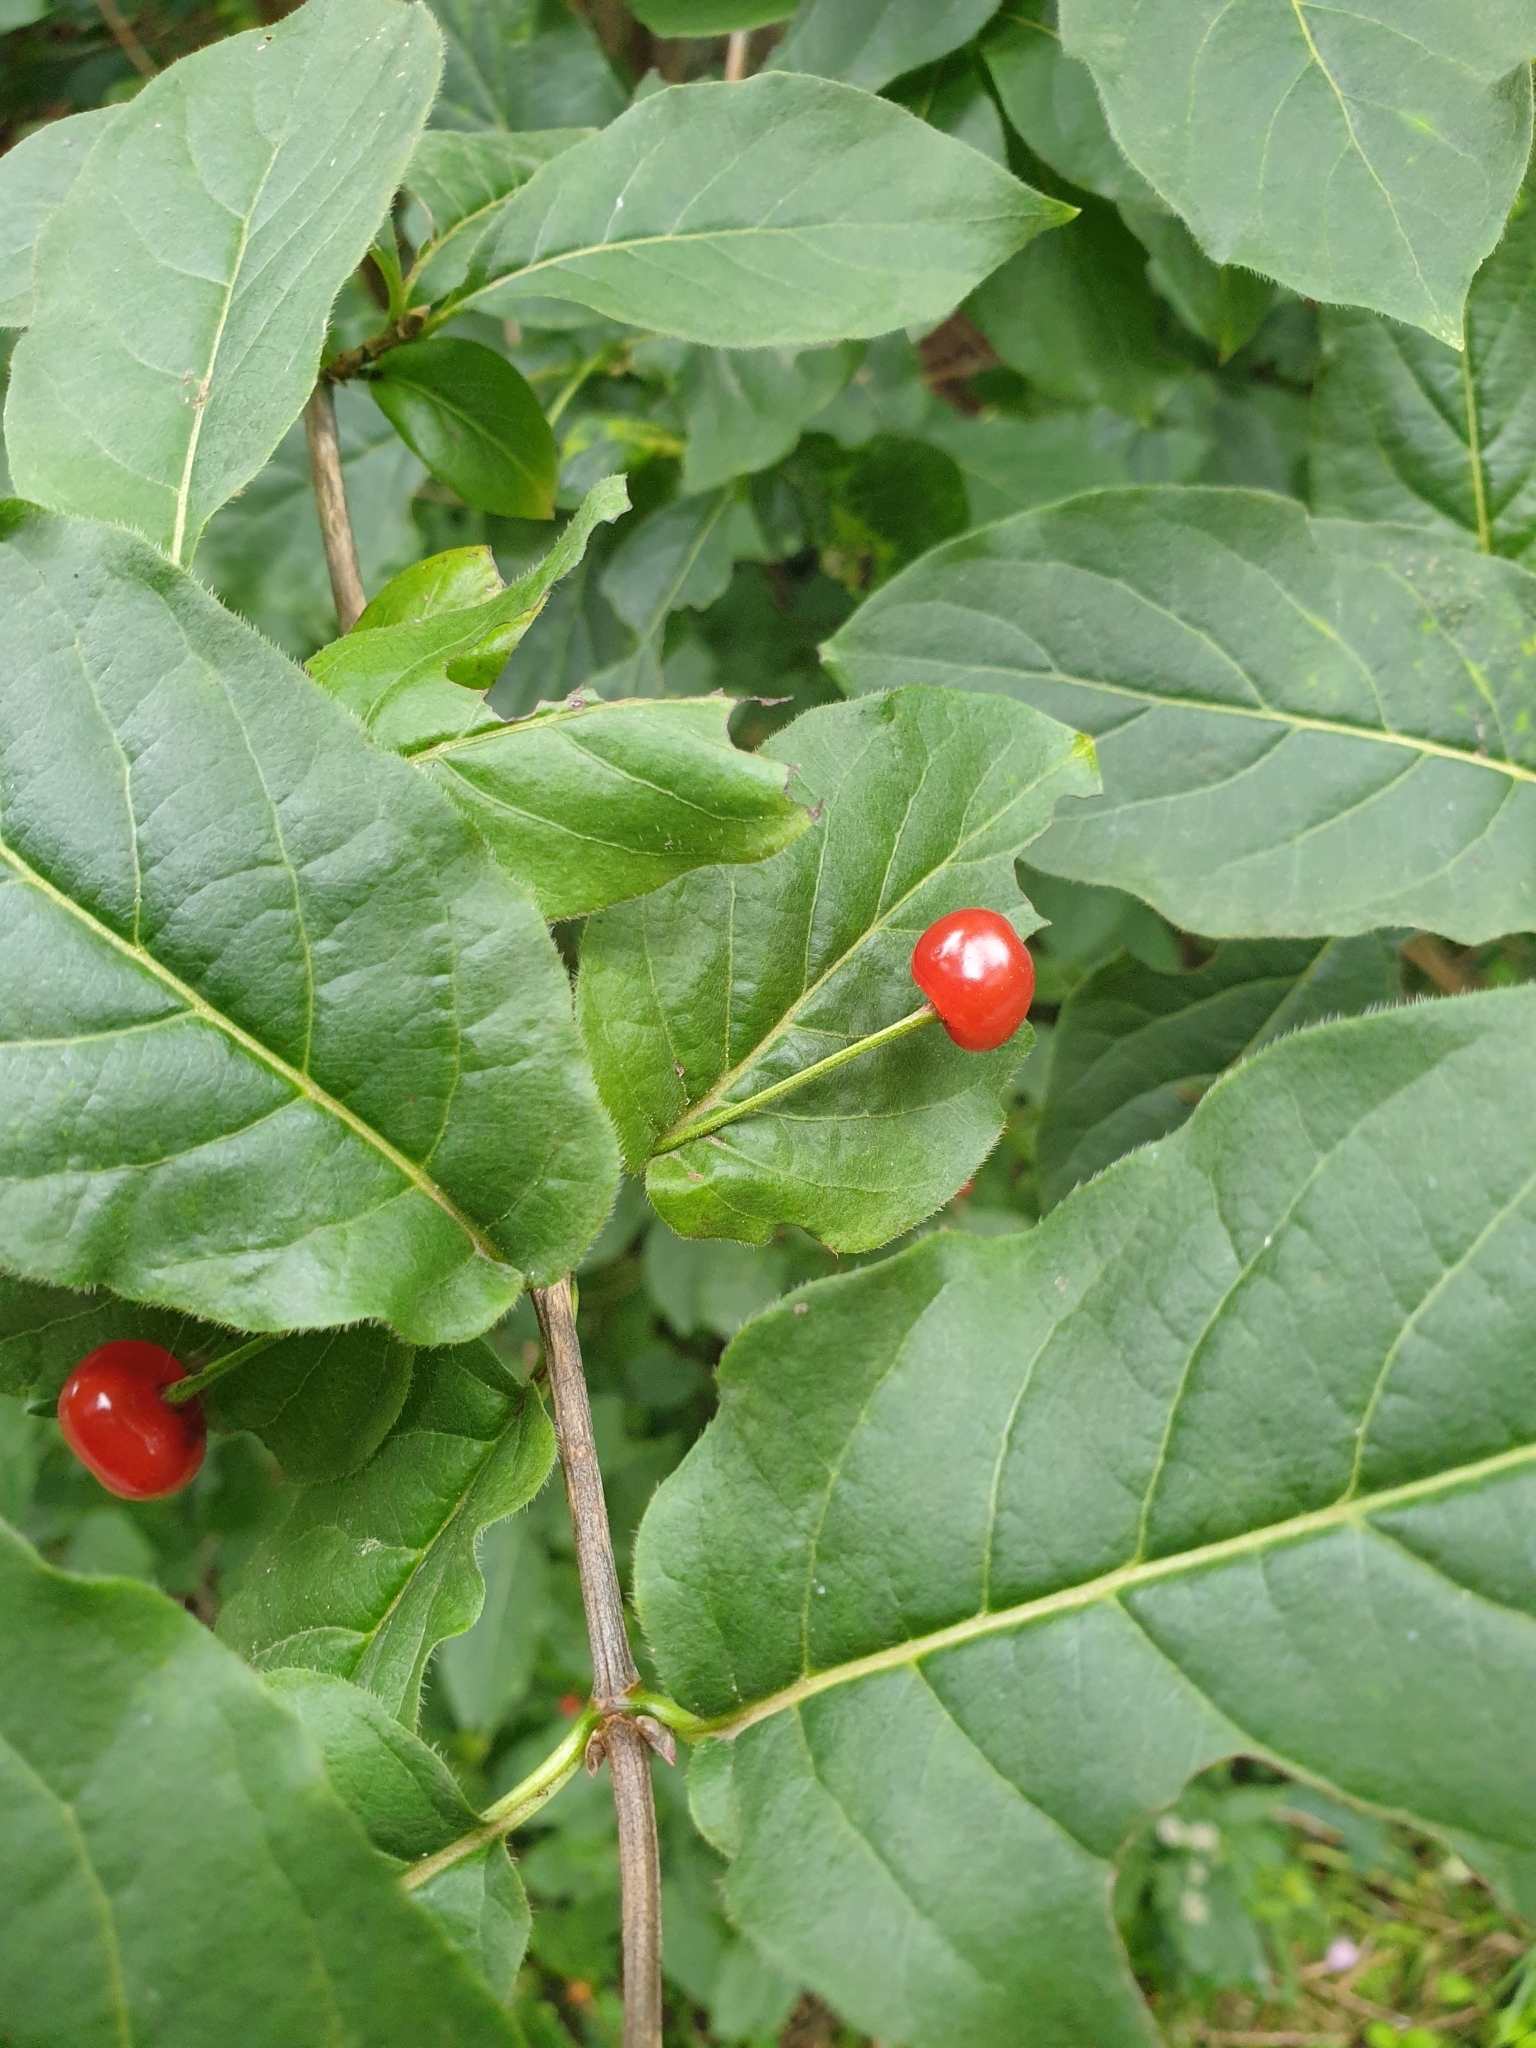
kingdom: Plantae
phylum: Tracheophyta
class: Magnoliopsida
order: Dipsacales
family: Caprifoliaceae
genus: Lonicera
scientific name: Lonicera alpigena
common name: Alpine honeysuckle
